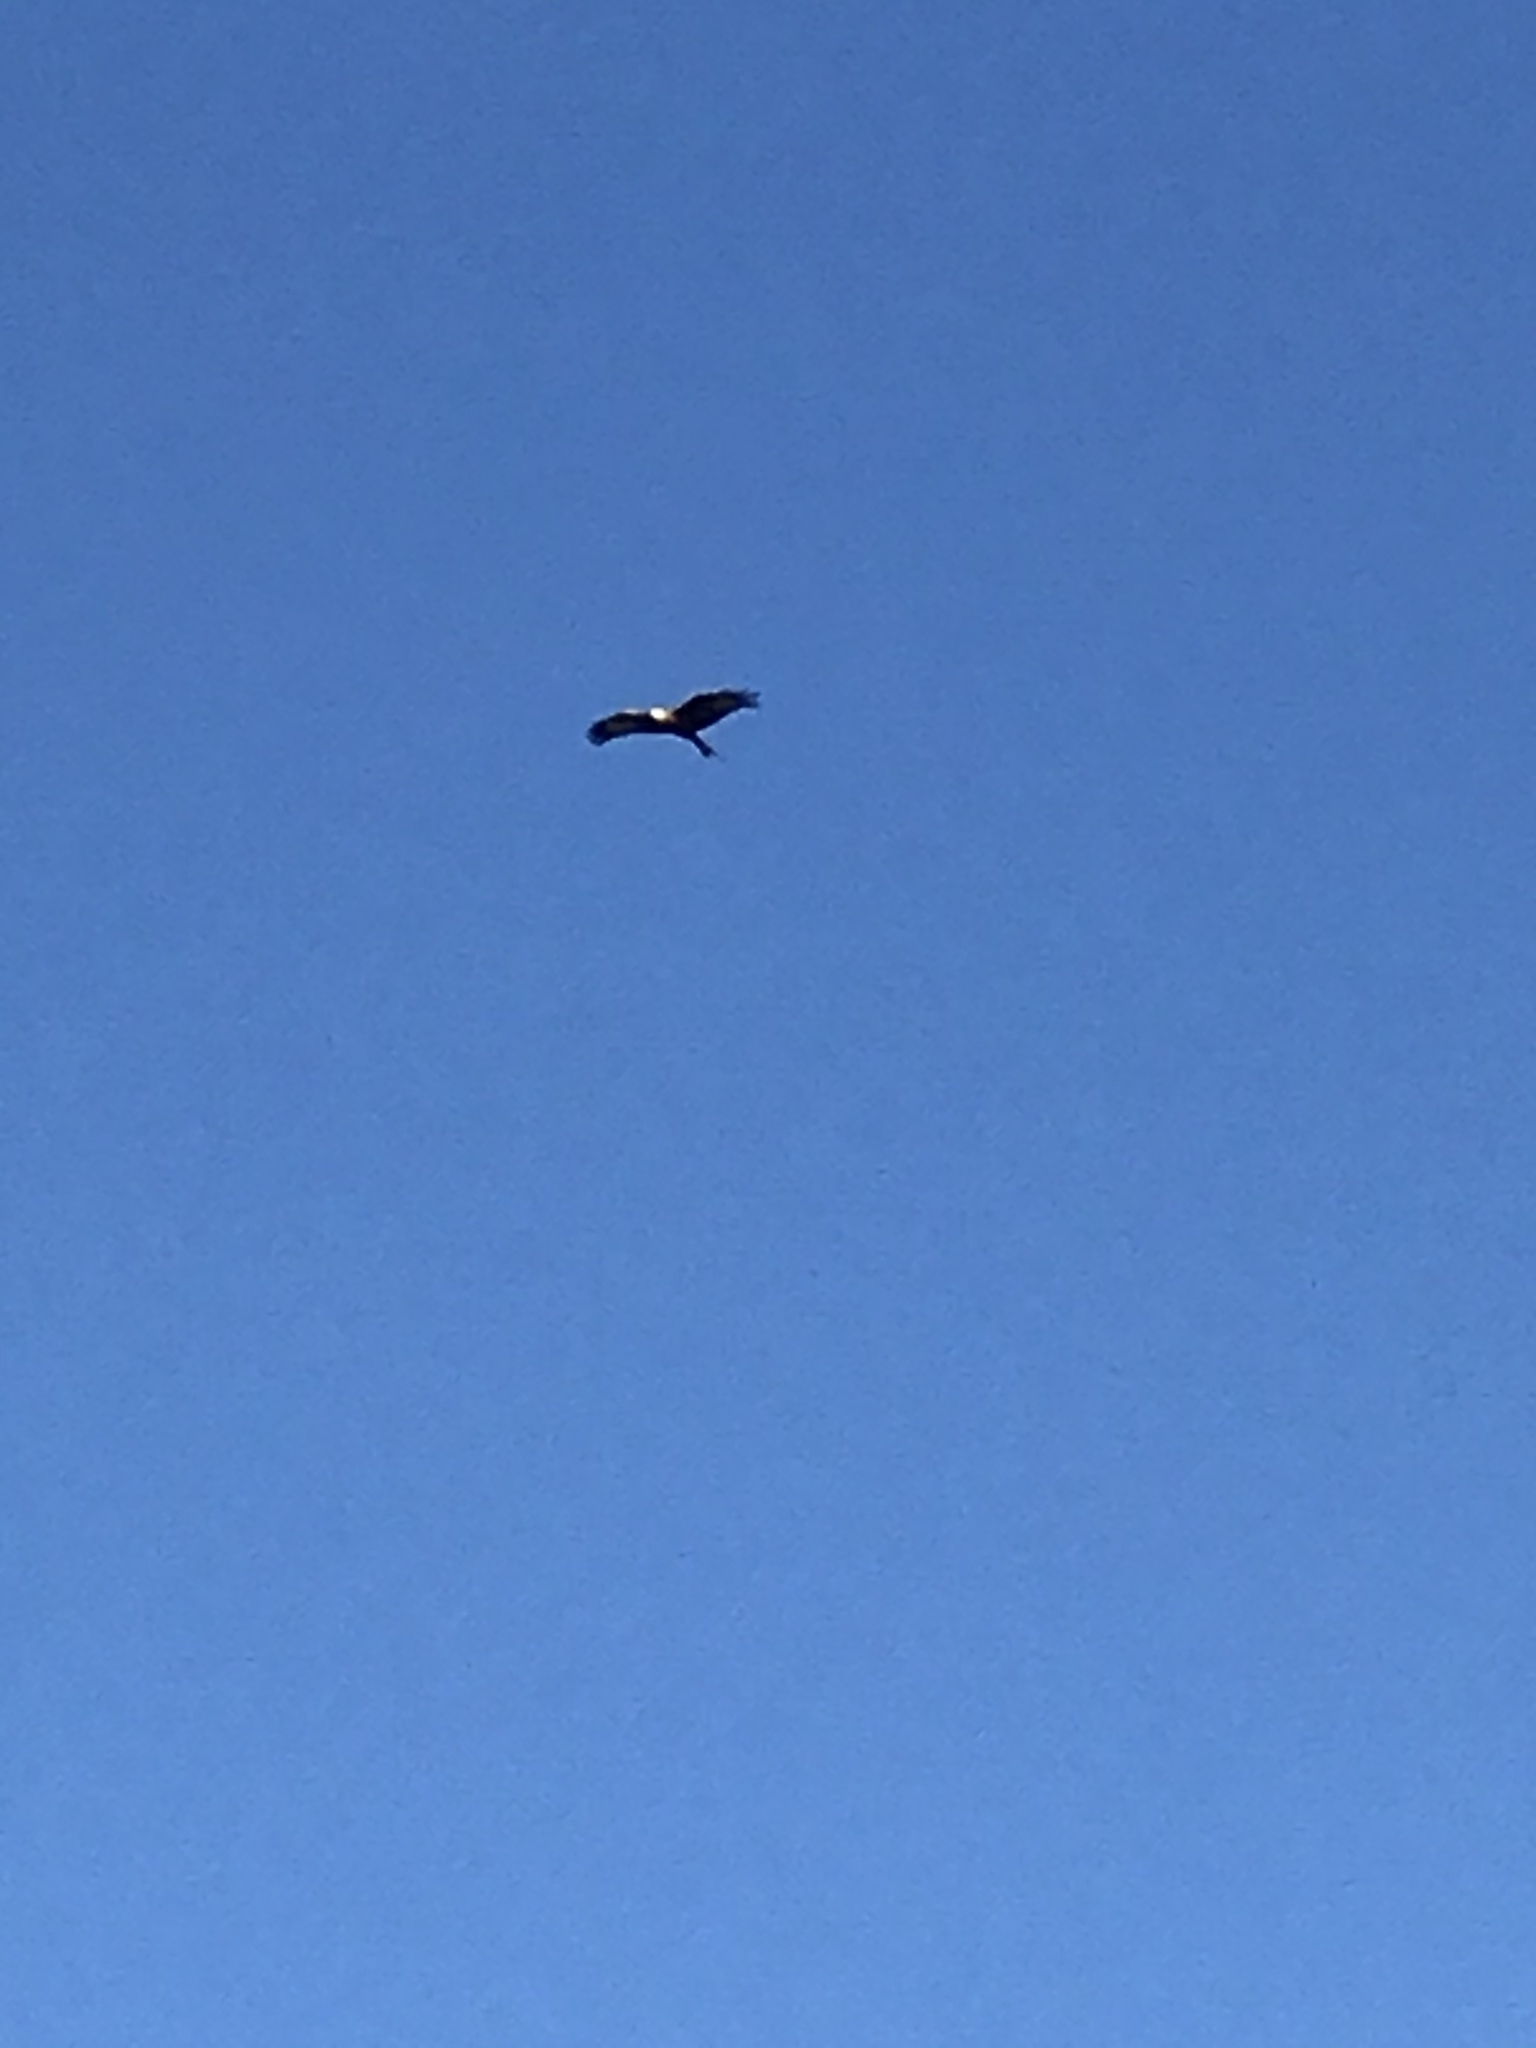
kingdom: Animalia
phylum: Chordata
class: Aves
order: Accipitriformes
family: Accipitridae
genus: Milvus
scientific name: Milvus milvus
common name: Red kite
